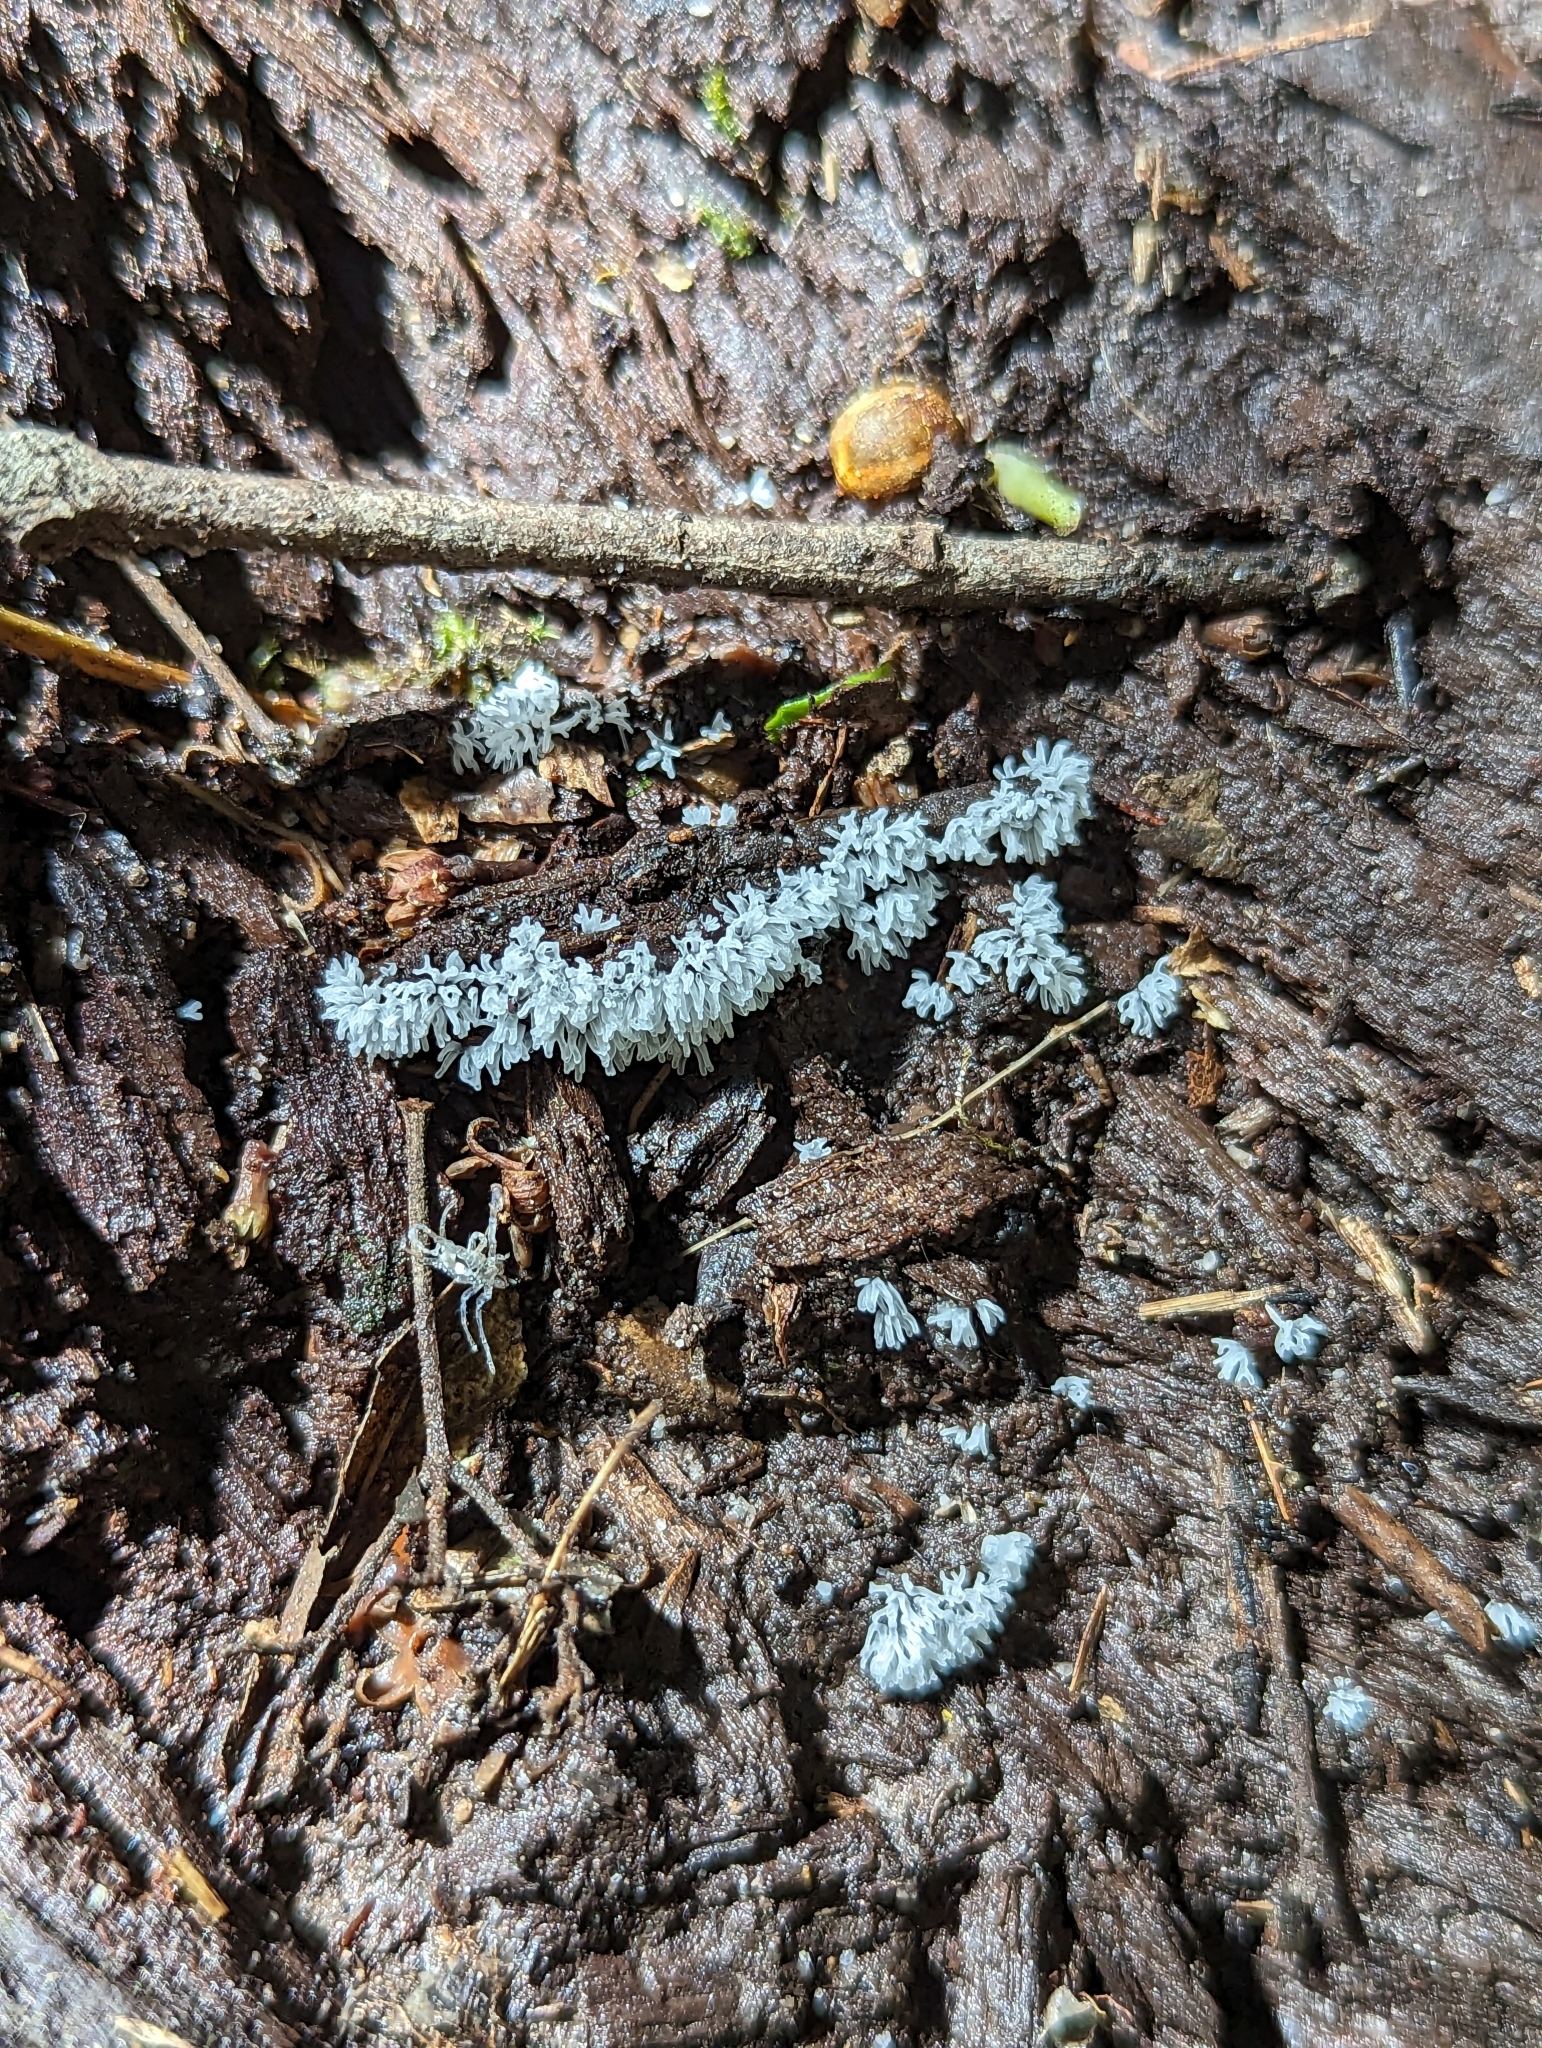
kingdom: Protozoa
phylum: Mycetozoa
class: Protosteliomycetes
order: Ceratiomyxales
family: Ceratiomyxaceae
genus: Ceratiomyxa
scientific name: Ceratiomyxa fruticulosa
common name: Honeycomb coral slime mold
